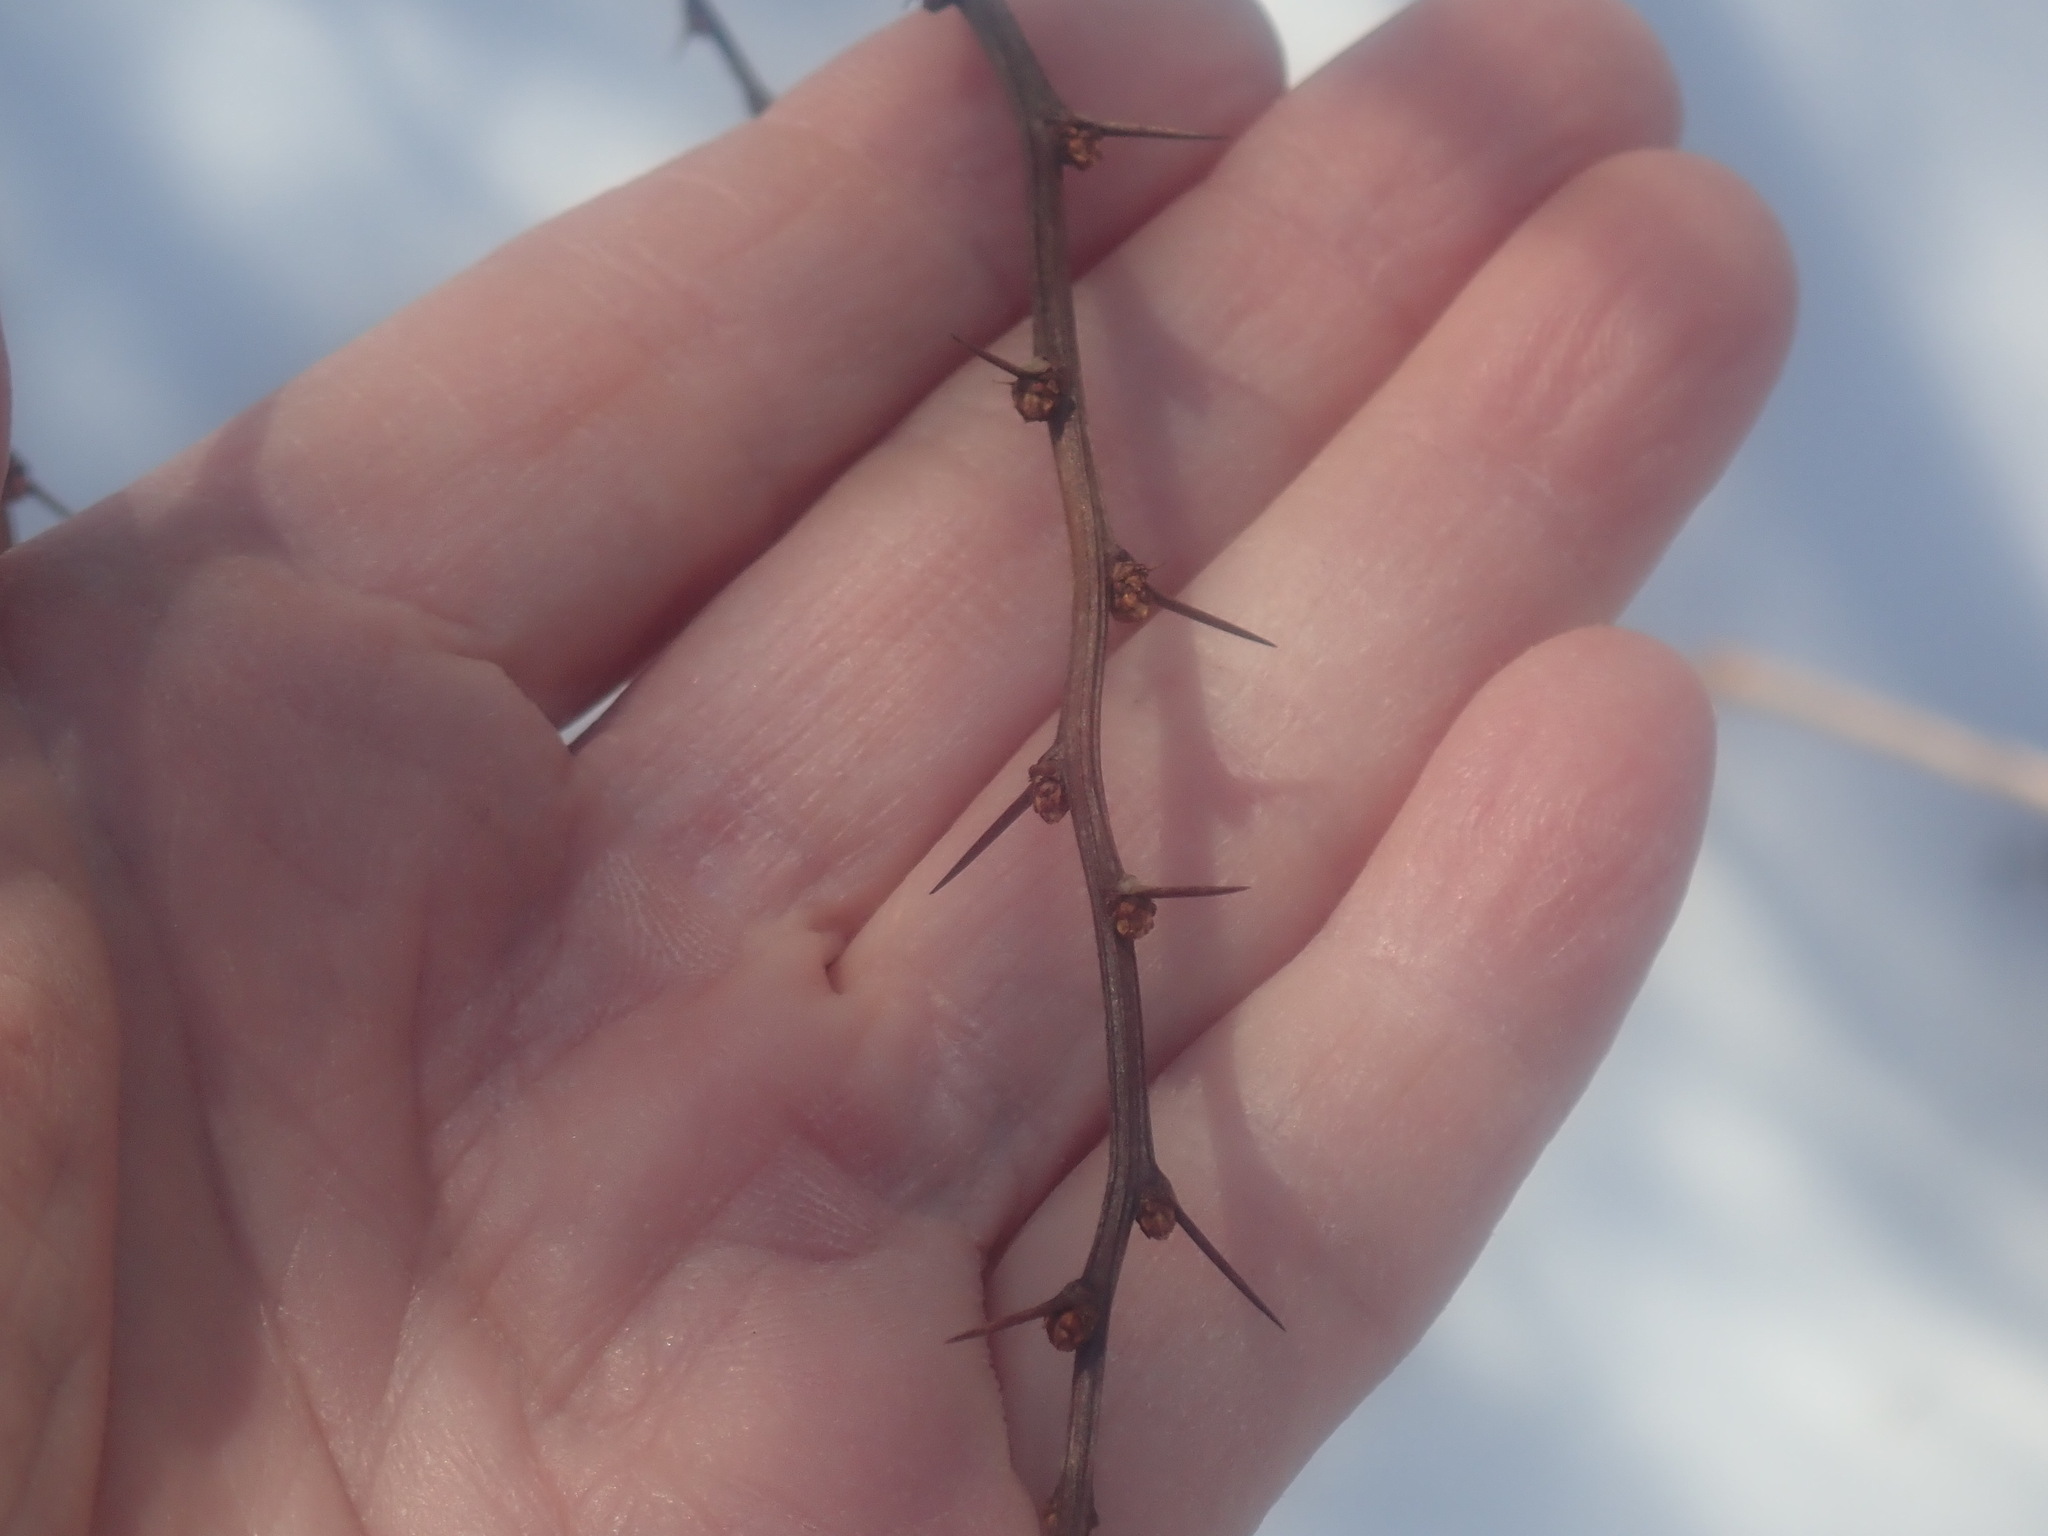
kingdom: Plantae
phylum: Tracheophyta
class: Magnoliopsida
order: Ranunculales
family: Berberidaceae
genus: Berberis
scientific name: Berberis thunbergii
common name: Japanese barberry
